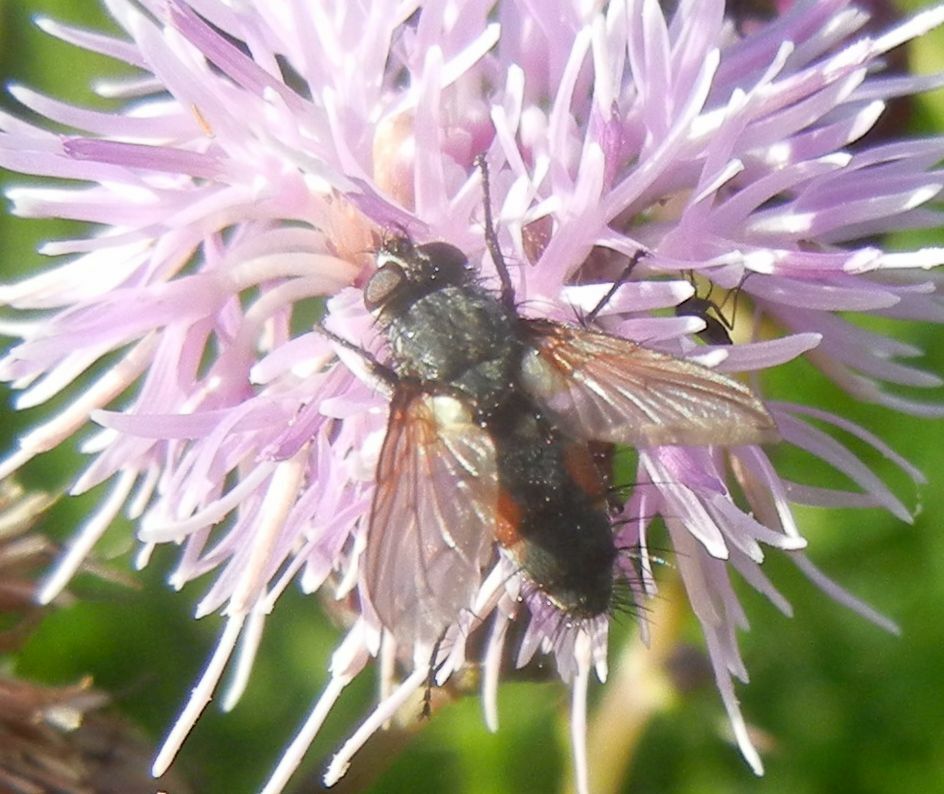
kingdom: Animalia
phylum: Arthropoda
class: Insecta
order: Diptera
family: Tachinidae
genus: Eriothrix
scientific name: Eriothrix rufomaculatus
